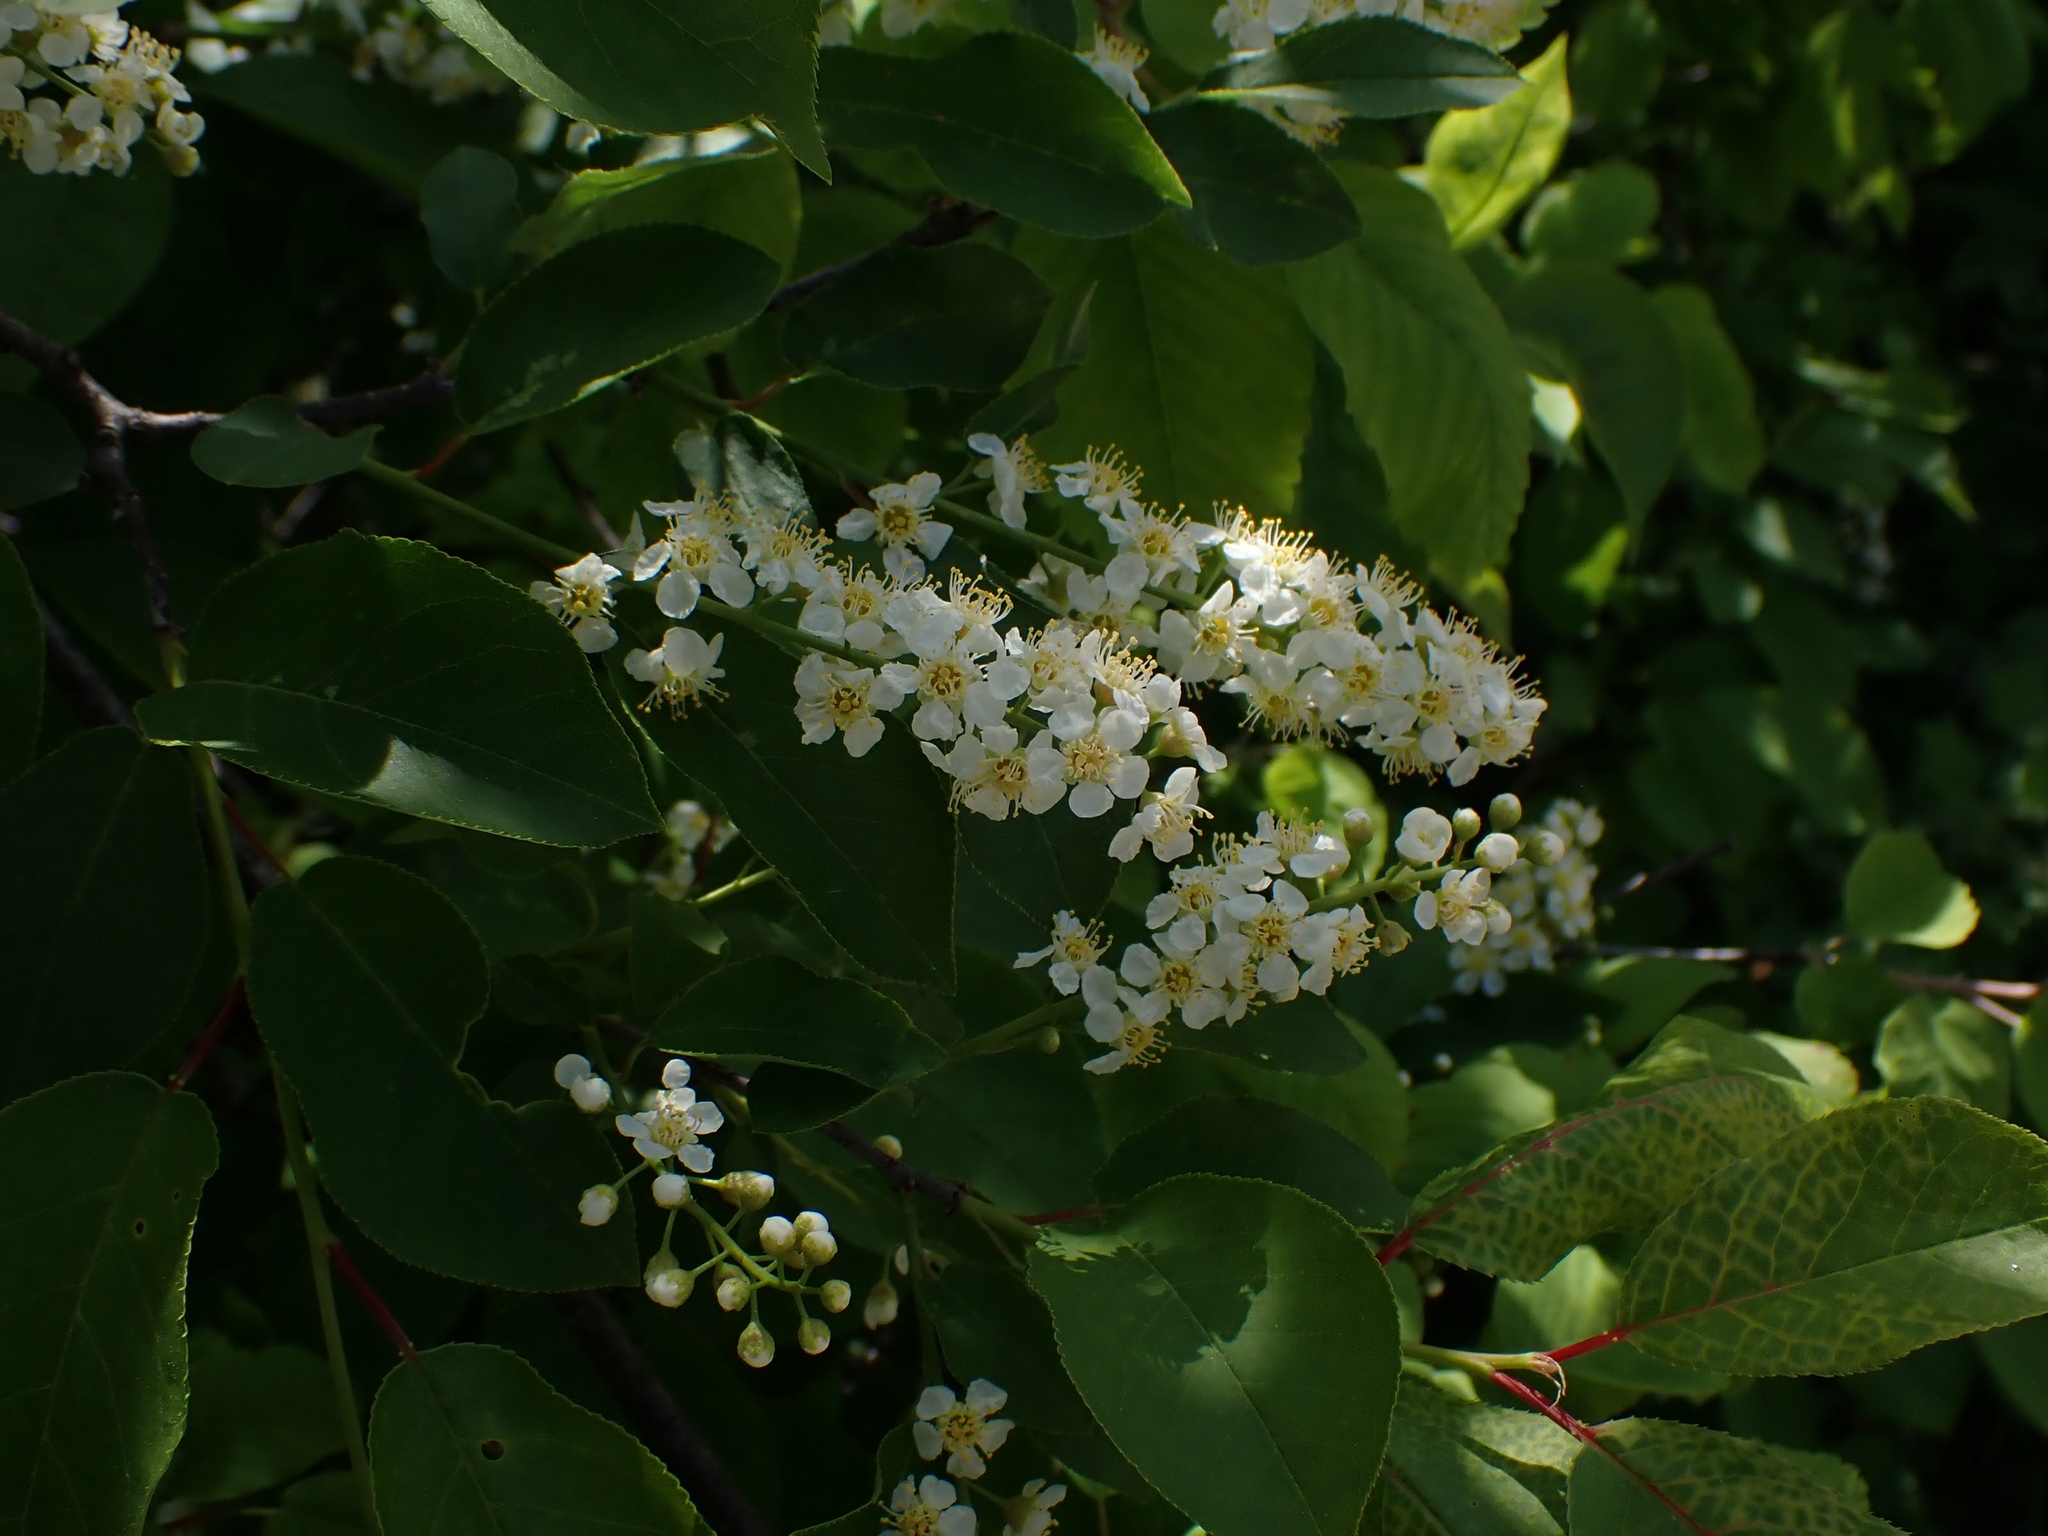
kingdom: Plantae
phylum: Tracheophyta
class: Magnoliopsida
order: Rosales
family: Rosaceae
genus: Prunus
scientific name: Prunus virginiana
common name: Chokecherry
